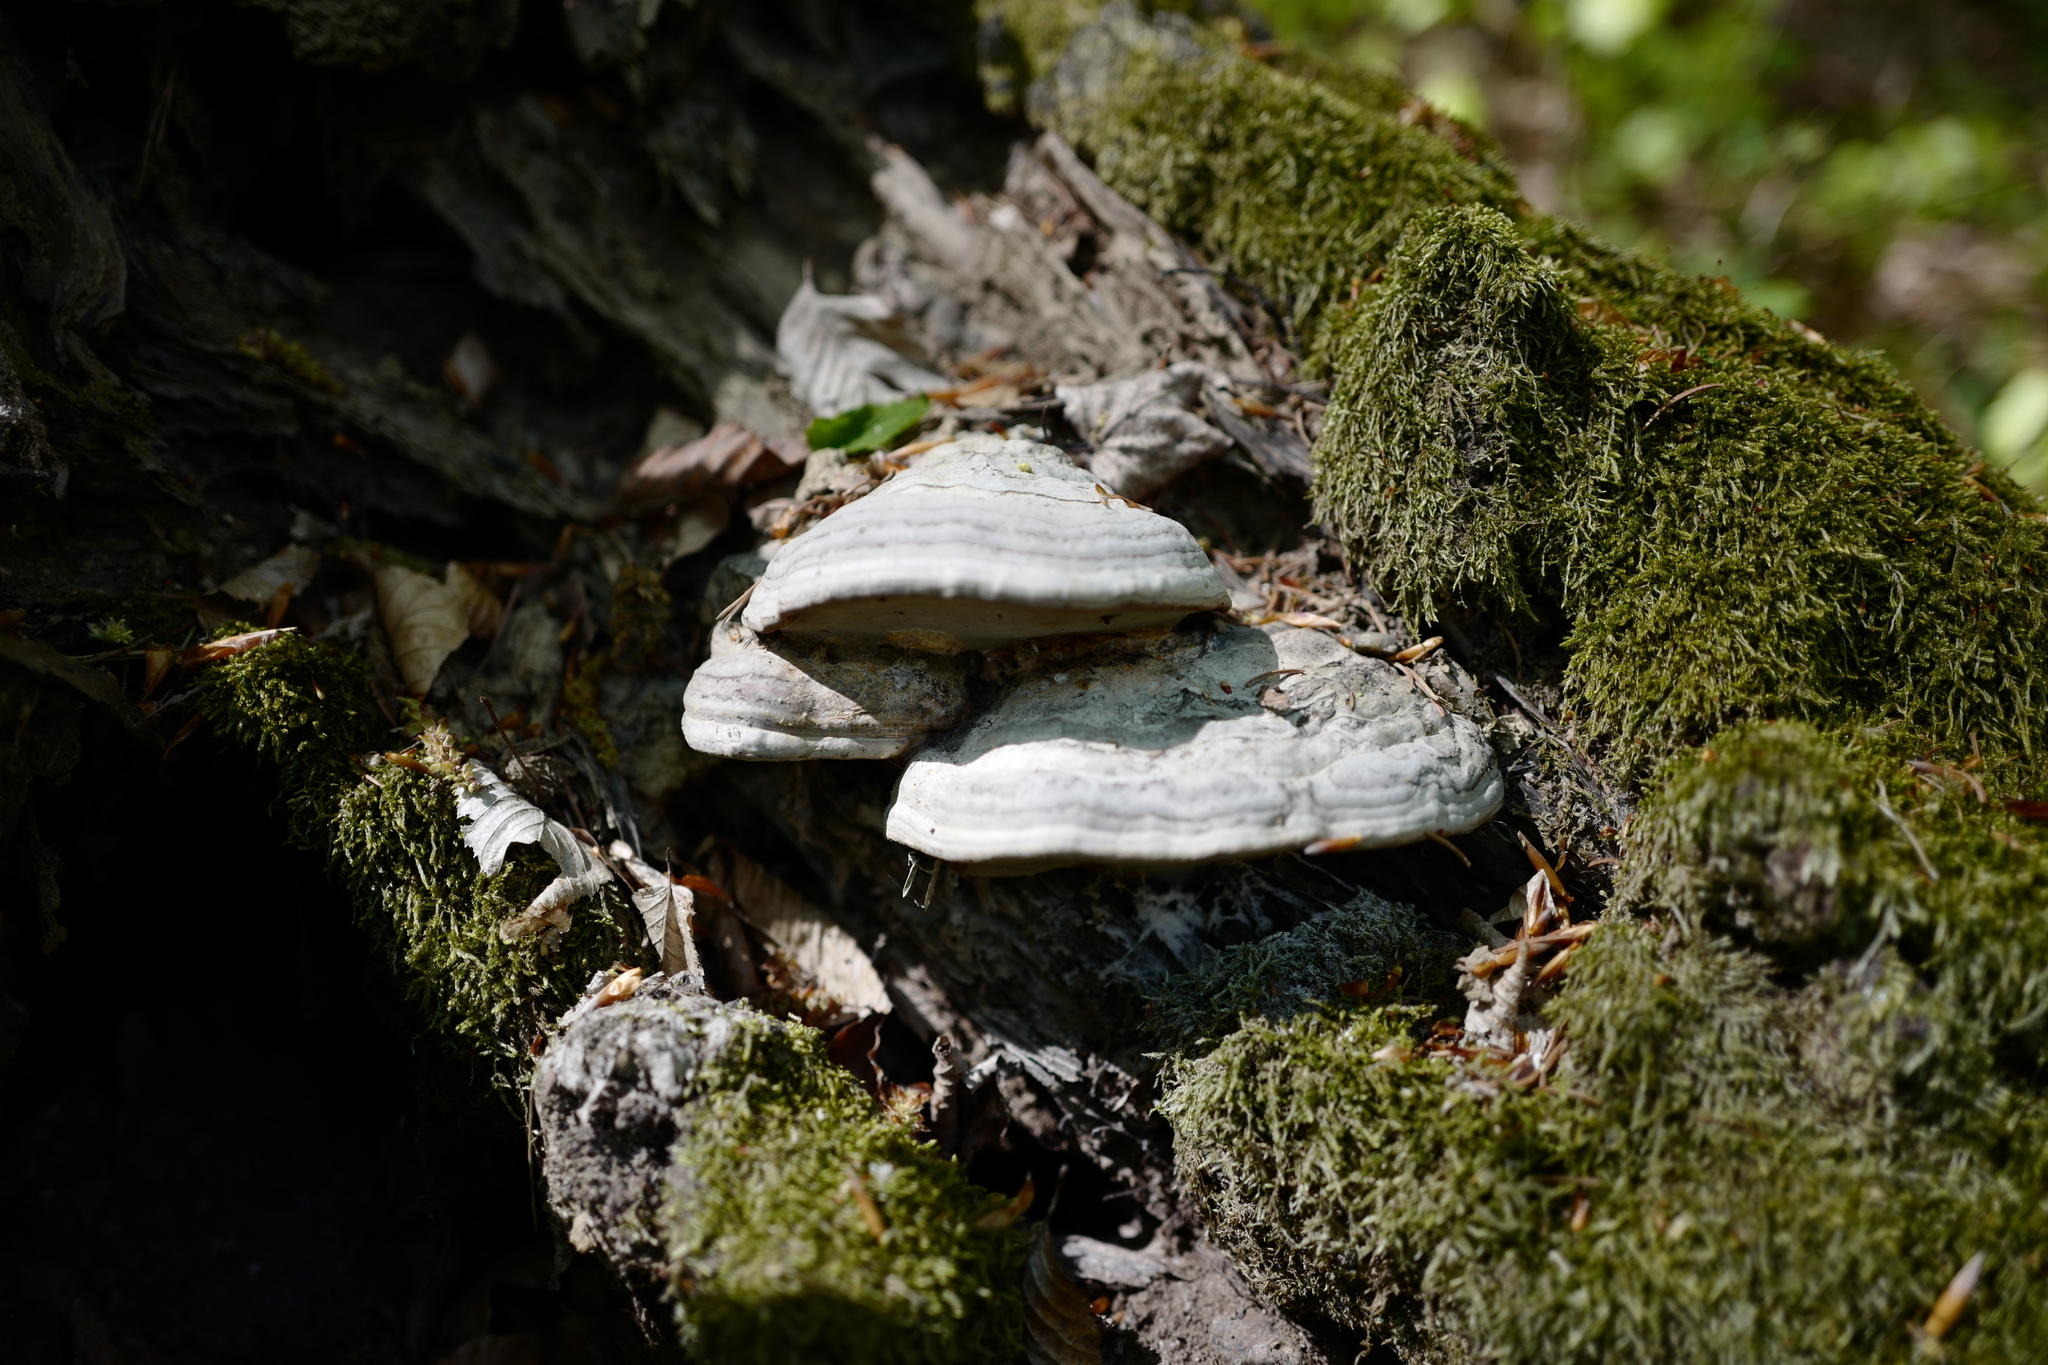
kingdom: Fungi
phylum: Basidiomycota
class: Agaricomycetes
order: Polyporales
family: Polyporaceae
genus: Fomes
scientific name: Fomes fomentarius
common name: Hoof fungus
